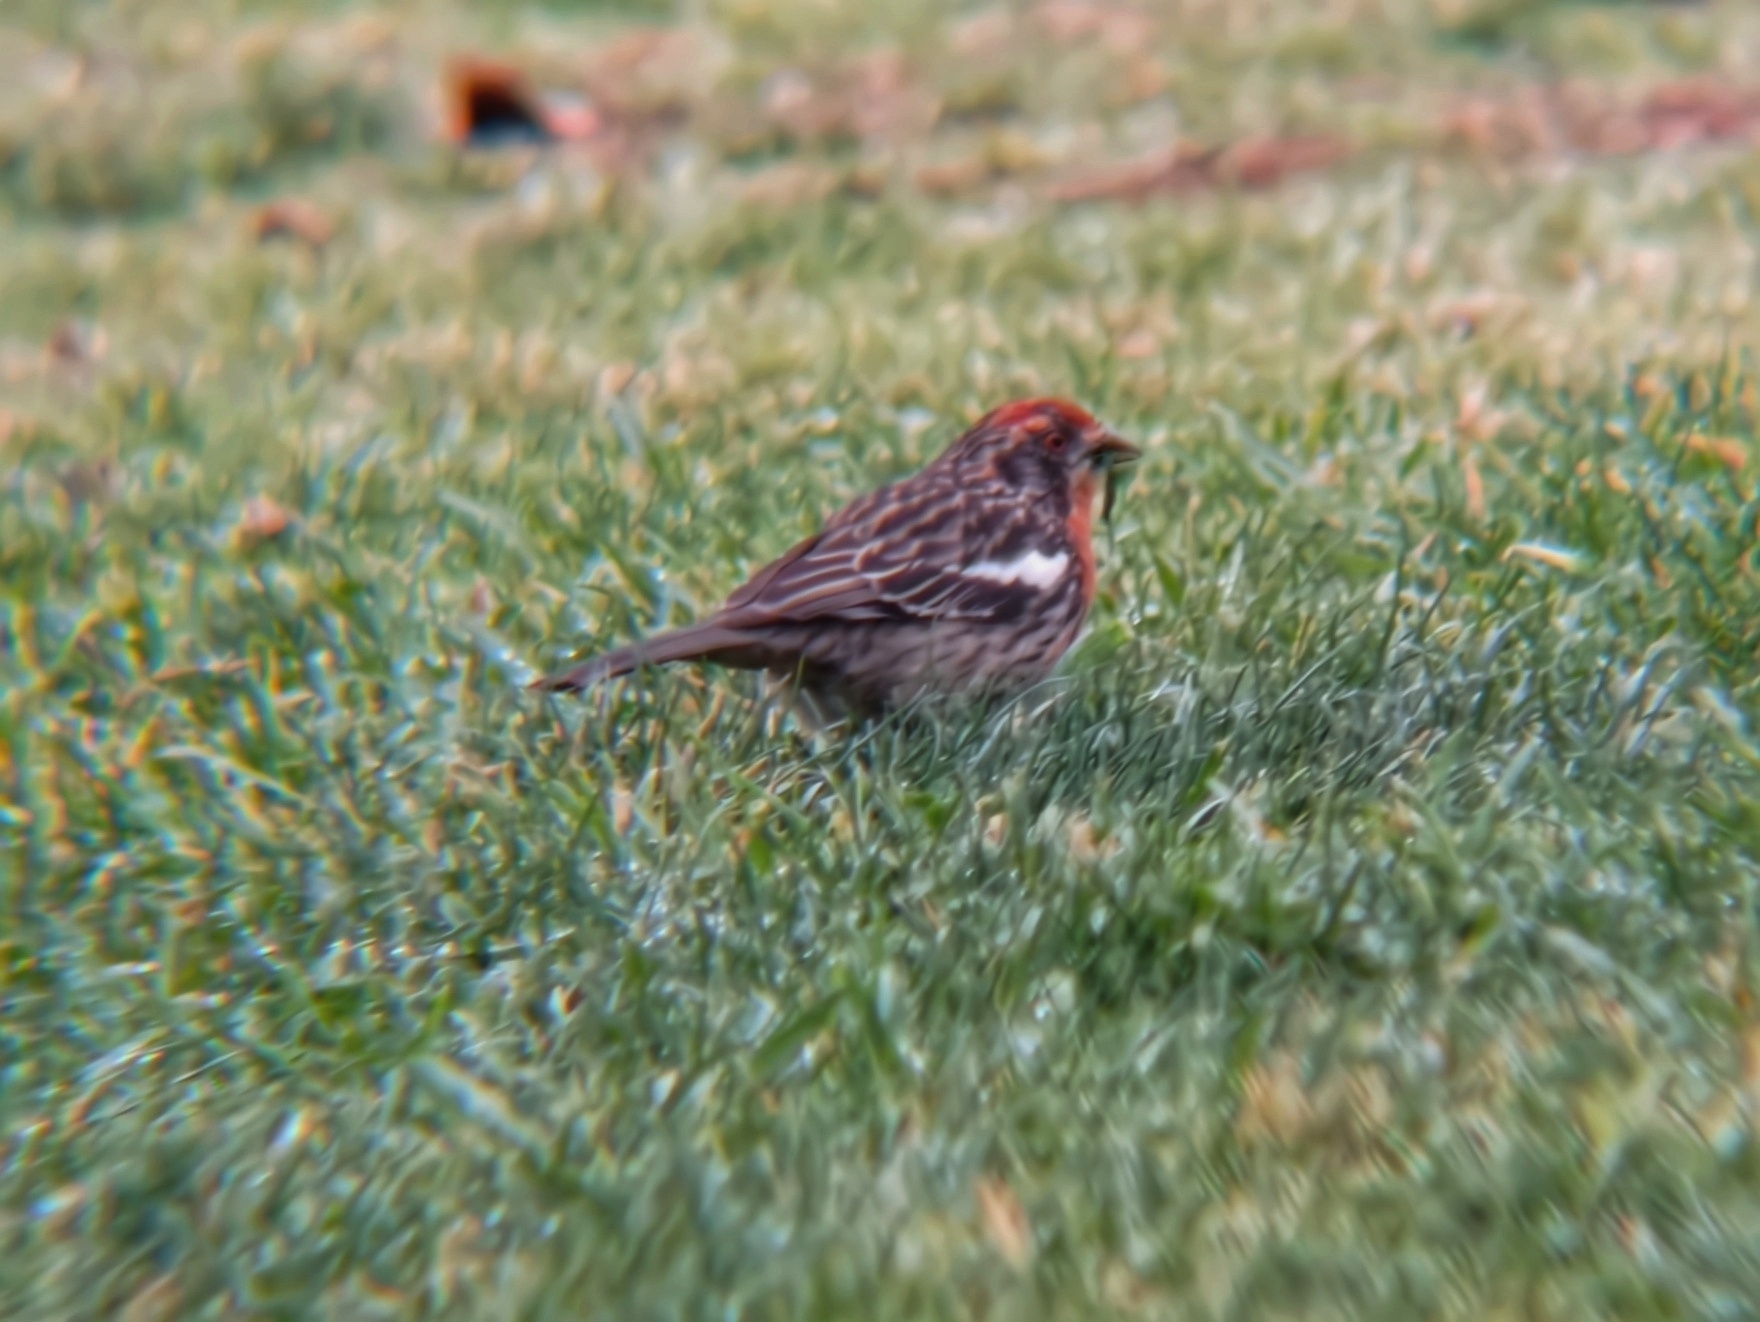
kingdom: Animalia
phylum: Chordata
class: Aves
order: Passeriformes
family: Cotingidae
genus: Phytotoma
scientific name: Phytotoma rara
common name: Rufous-tailed plantcutter
